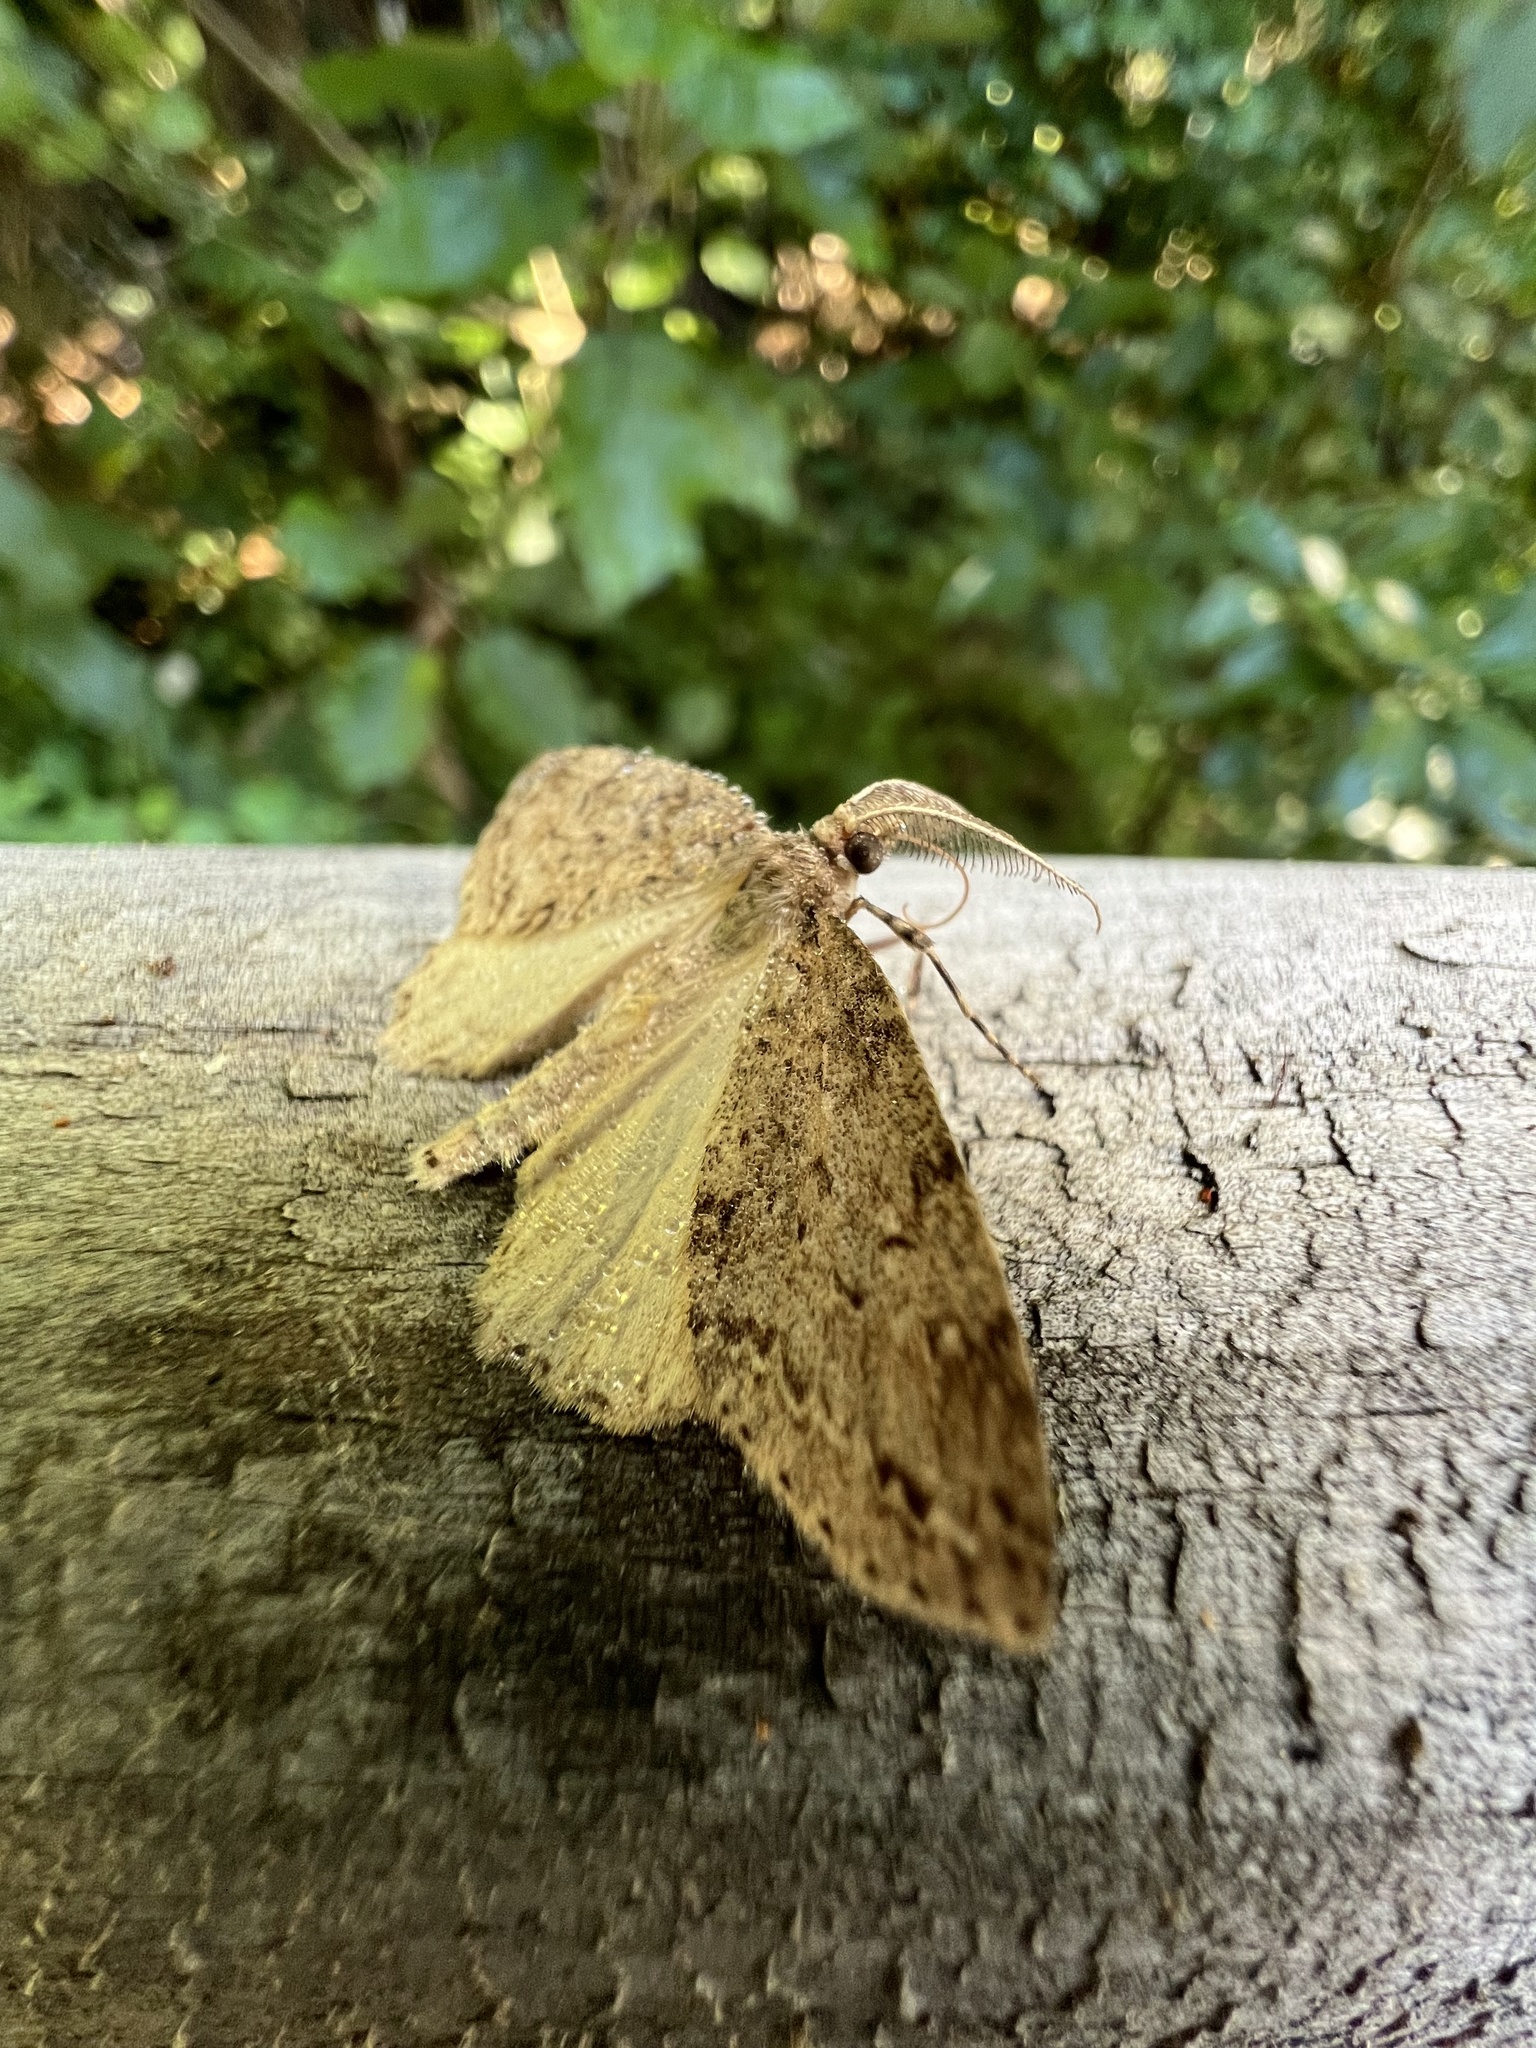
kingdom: Animalia
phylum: Arthropoda
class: Insecta
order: Lepidoptera
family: Geometridae
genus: Pseudocoremia
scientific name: Pseudocoremia fenerata
